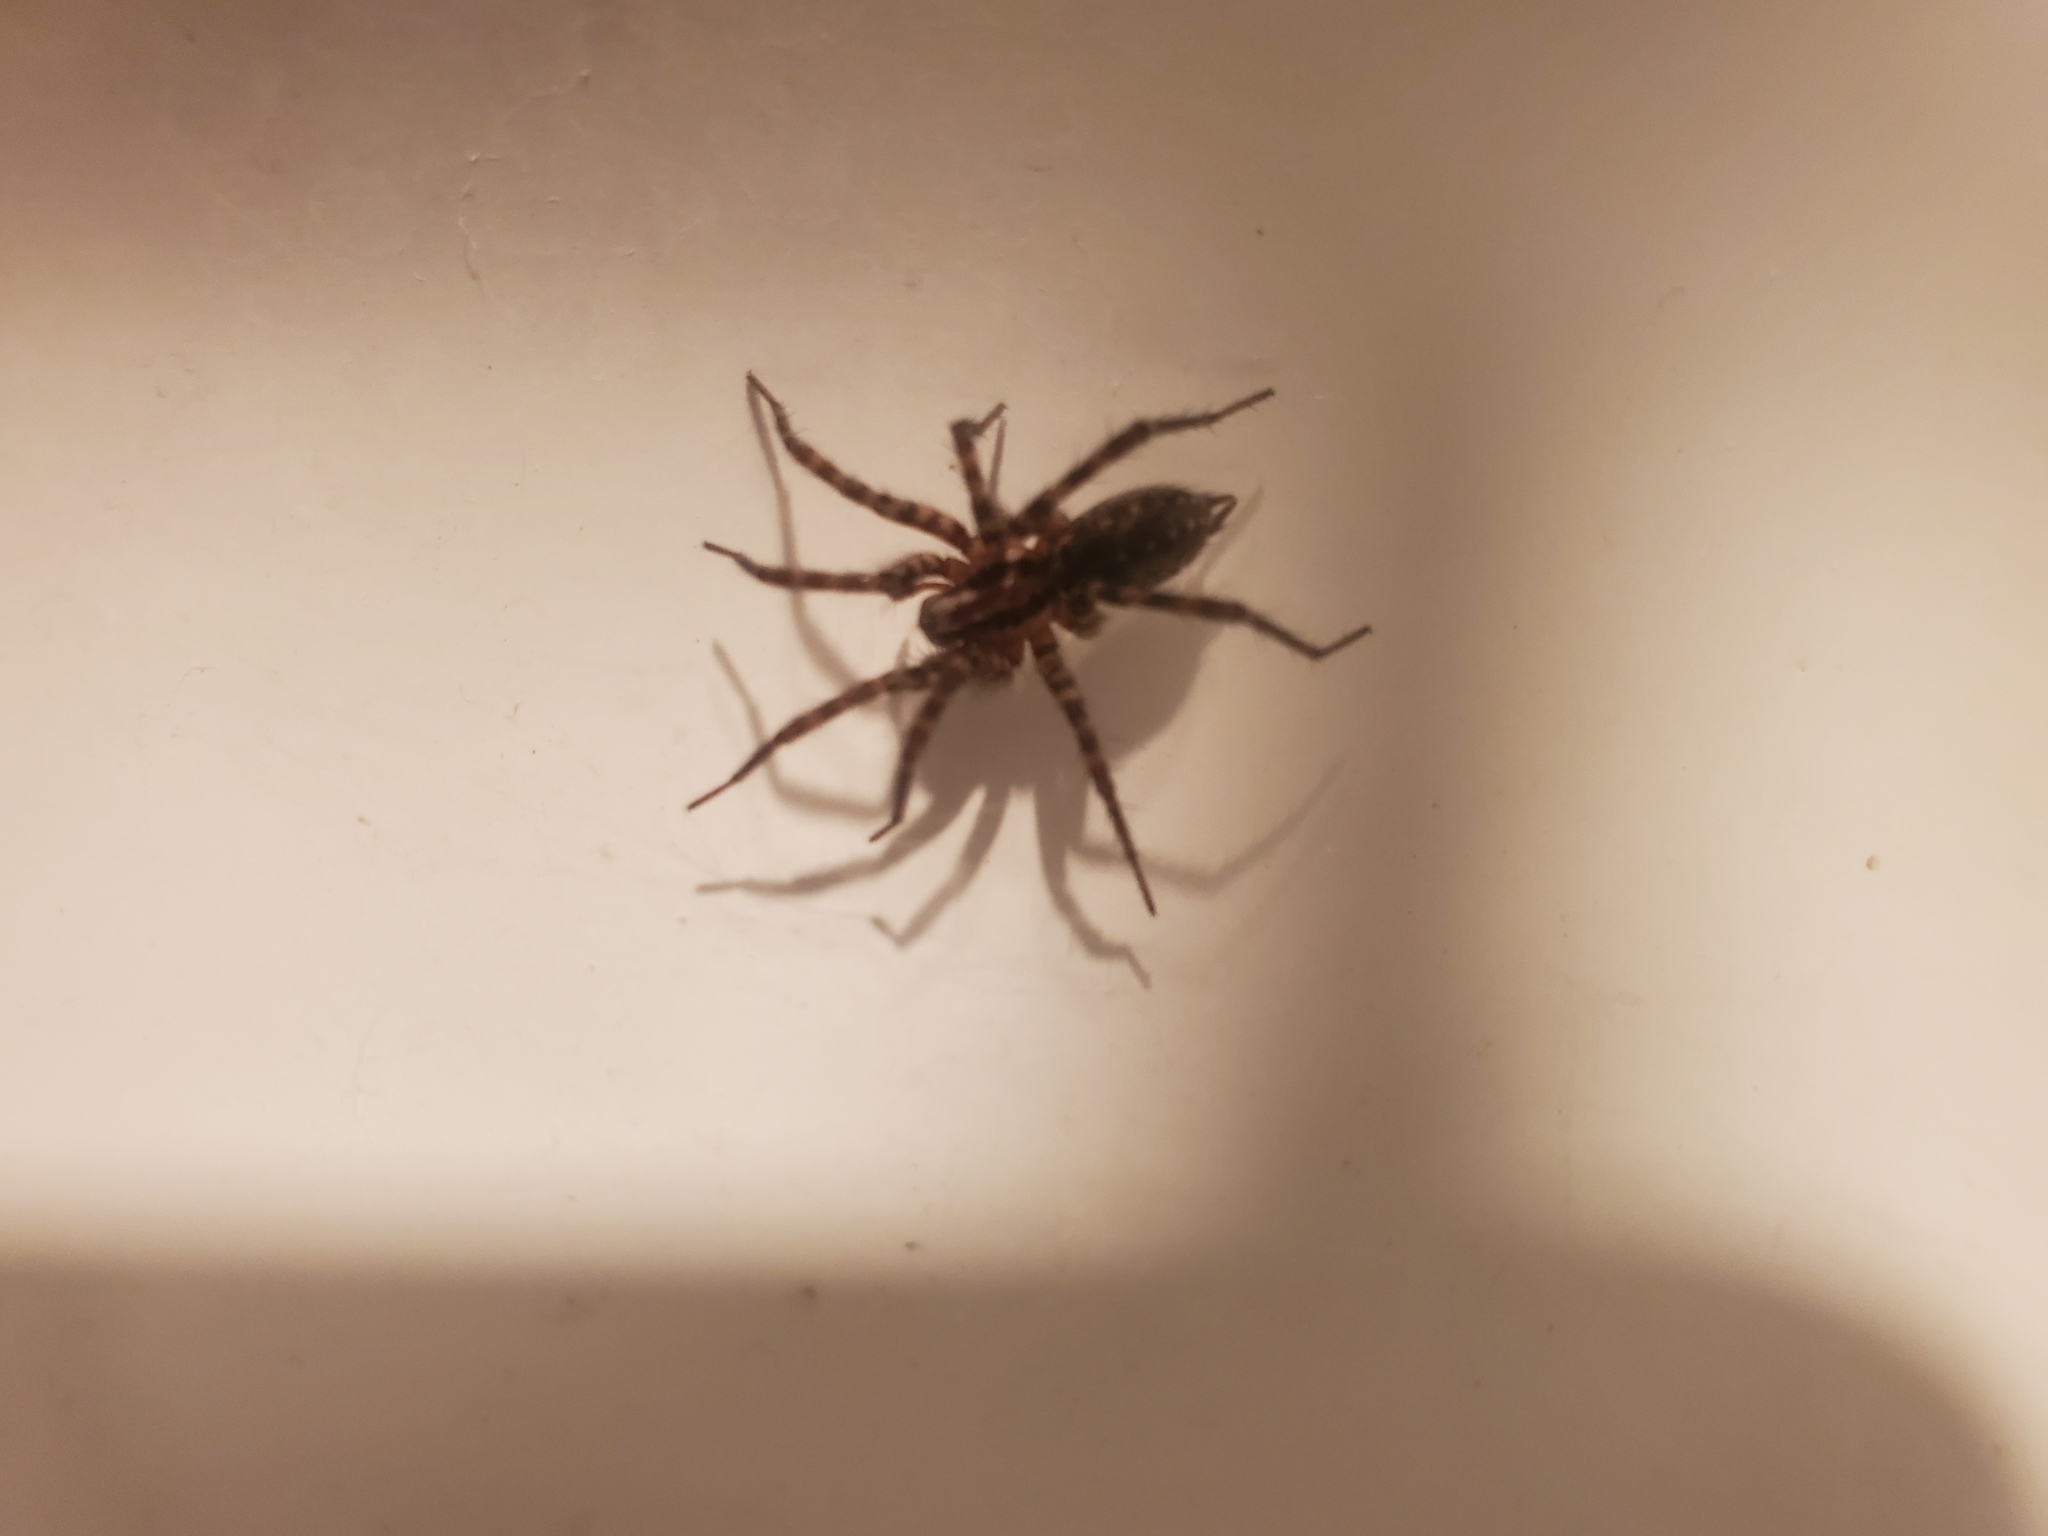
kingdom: Animalia
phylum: Arthropoda
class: Arachnida
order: Araneae
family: Agelenidae
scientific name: Agelenidae
